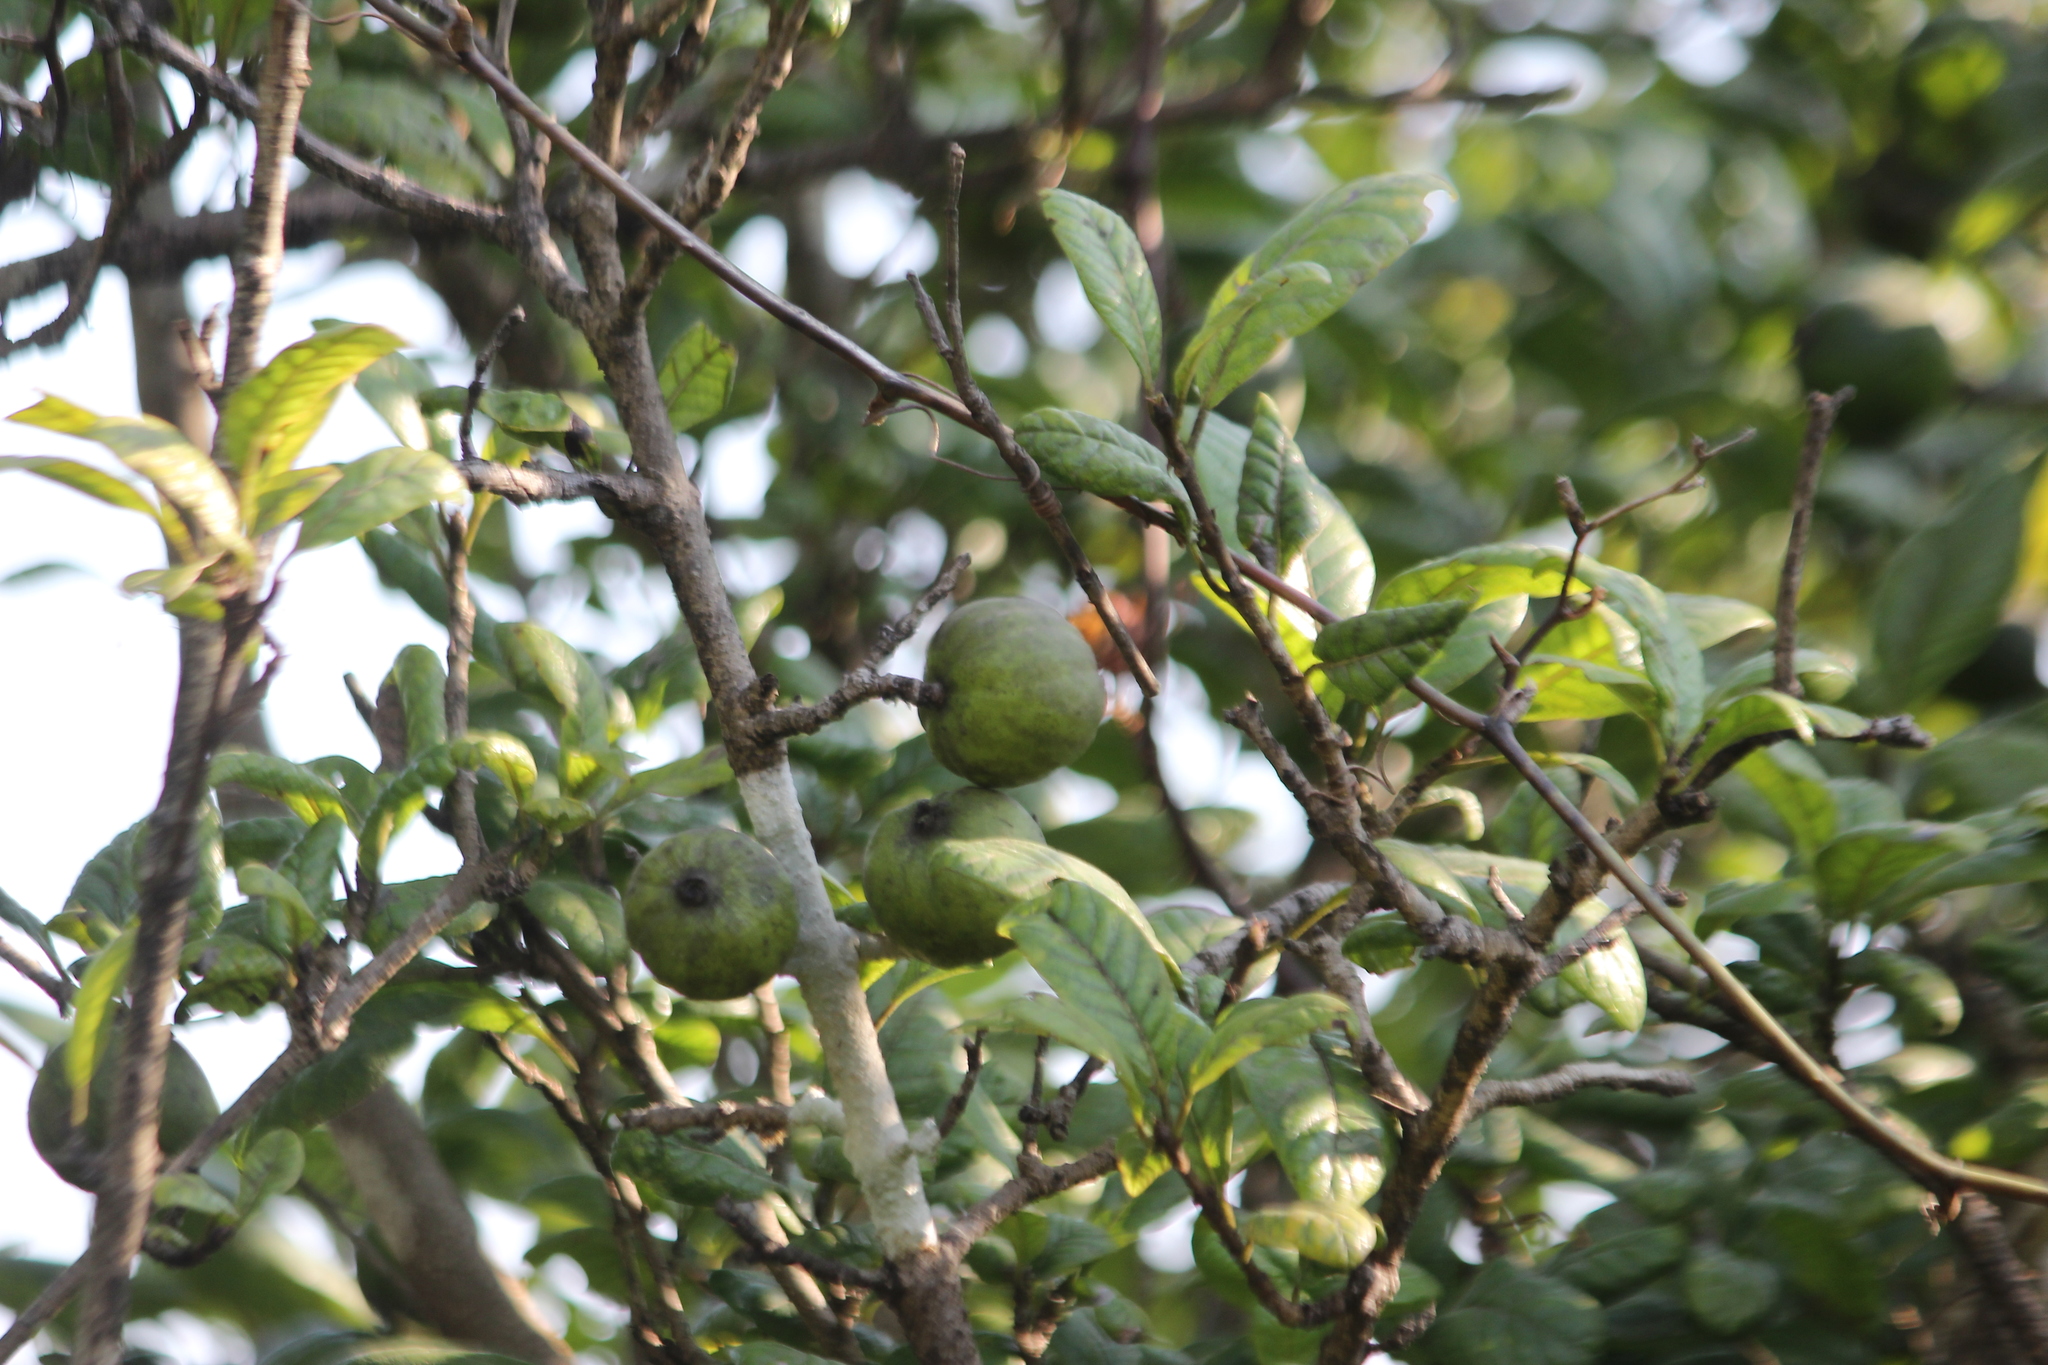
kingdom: Plantae
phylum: Tracheophyta
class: Magnoliopsida
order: Gentianales
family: Rubiaceae
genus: Catunaregam
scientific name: Catunaregam spinosa
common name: Emetic-nut
